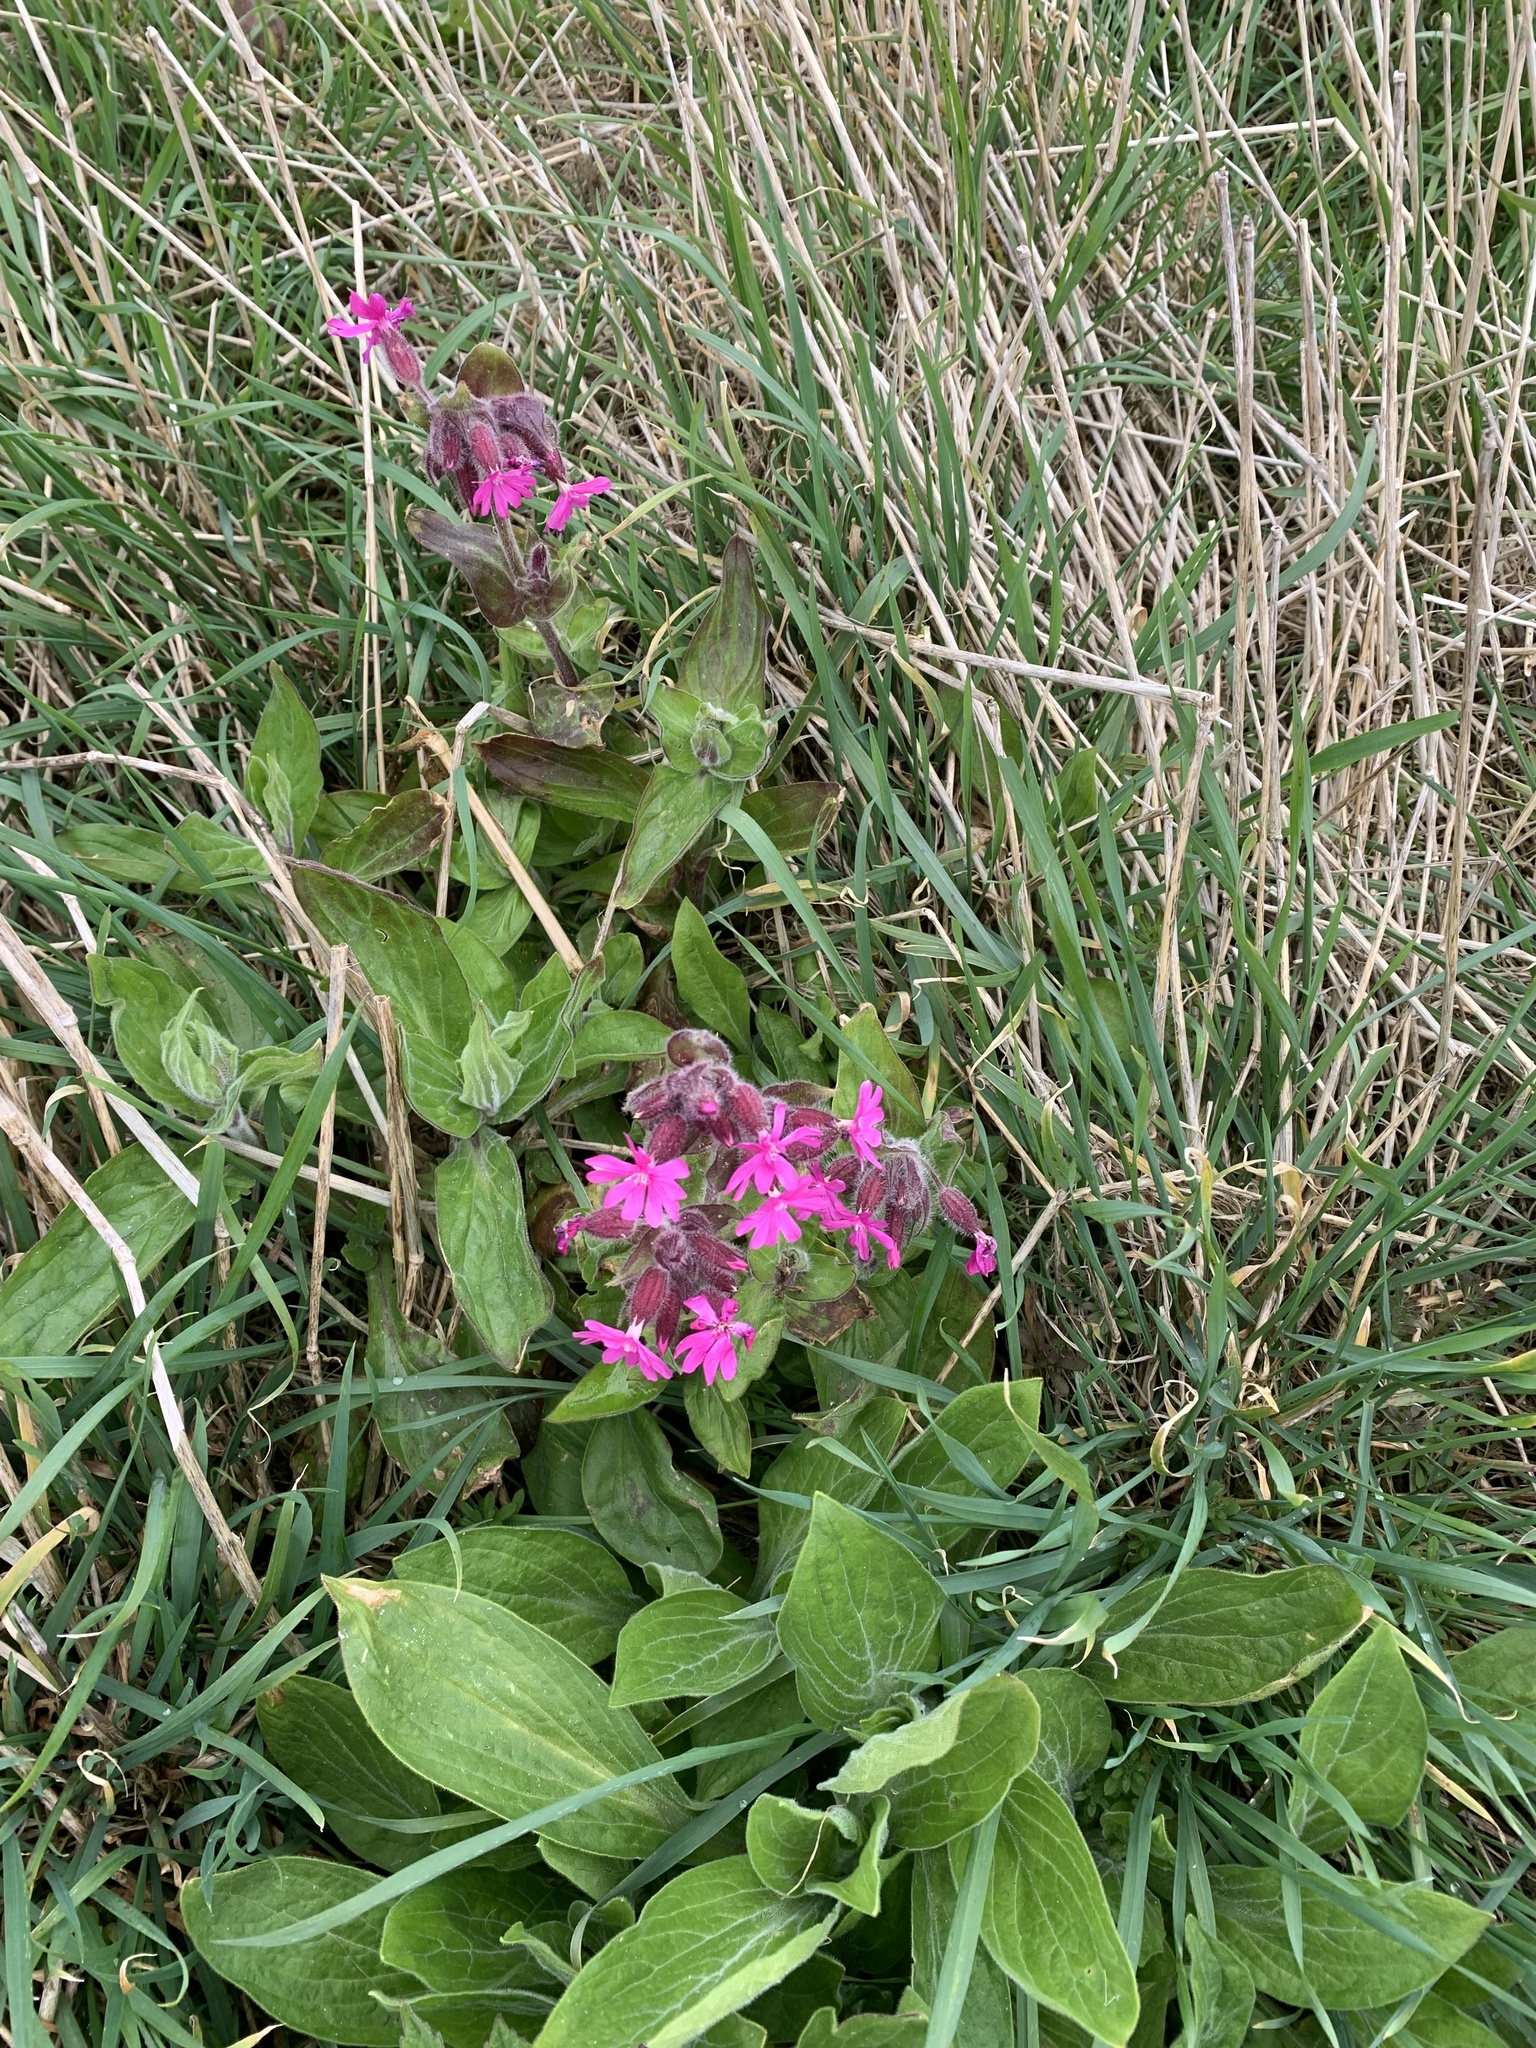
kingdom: Plantae
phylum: Tracheophyta
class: Magnoliopsida
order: Caryophyllales
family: Caryophyllaceae
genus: Silene
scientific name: Silene dioica
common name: Red campion
